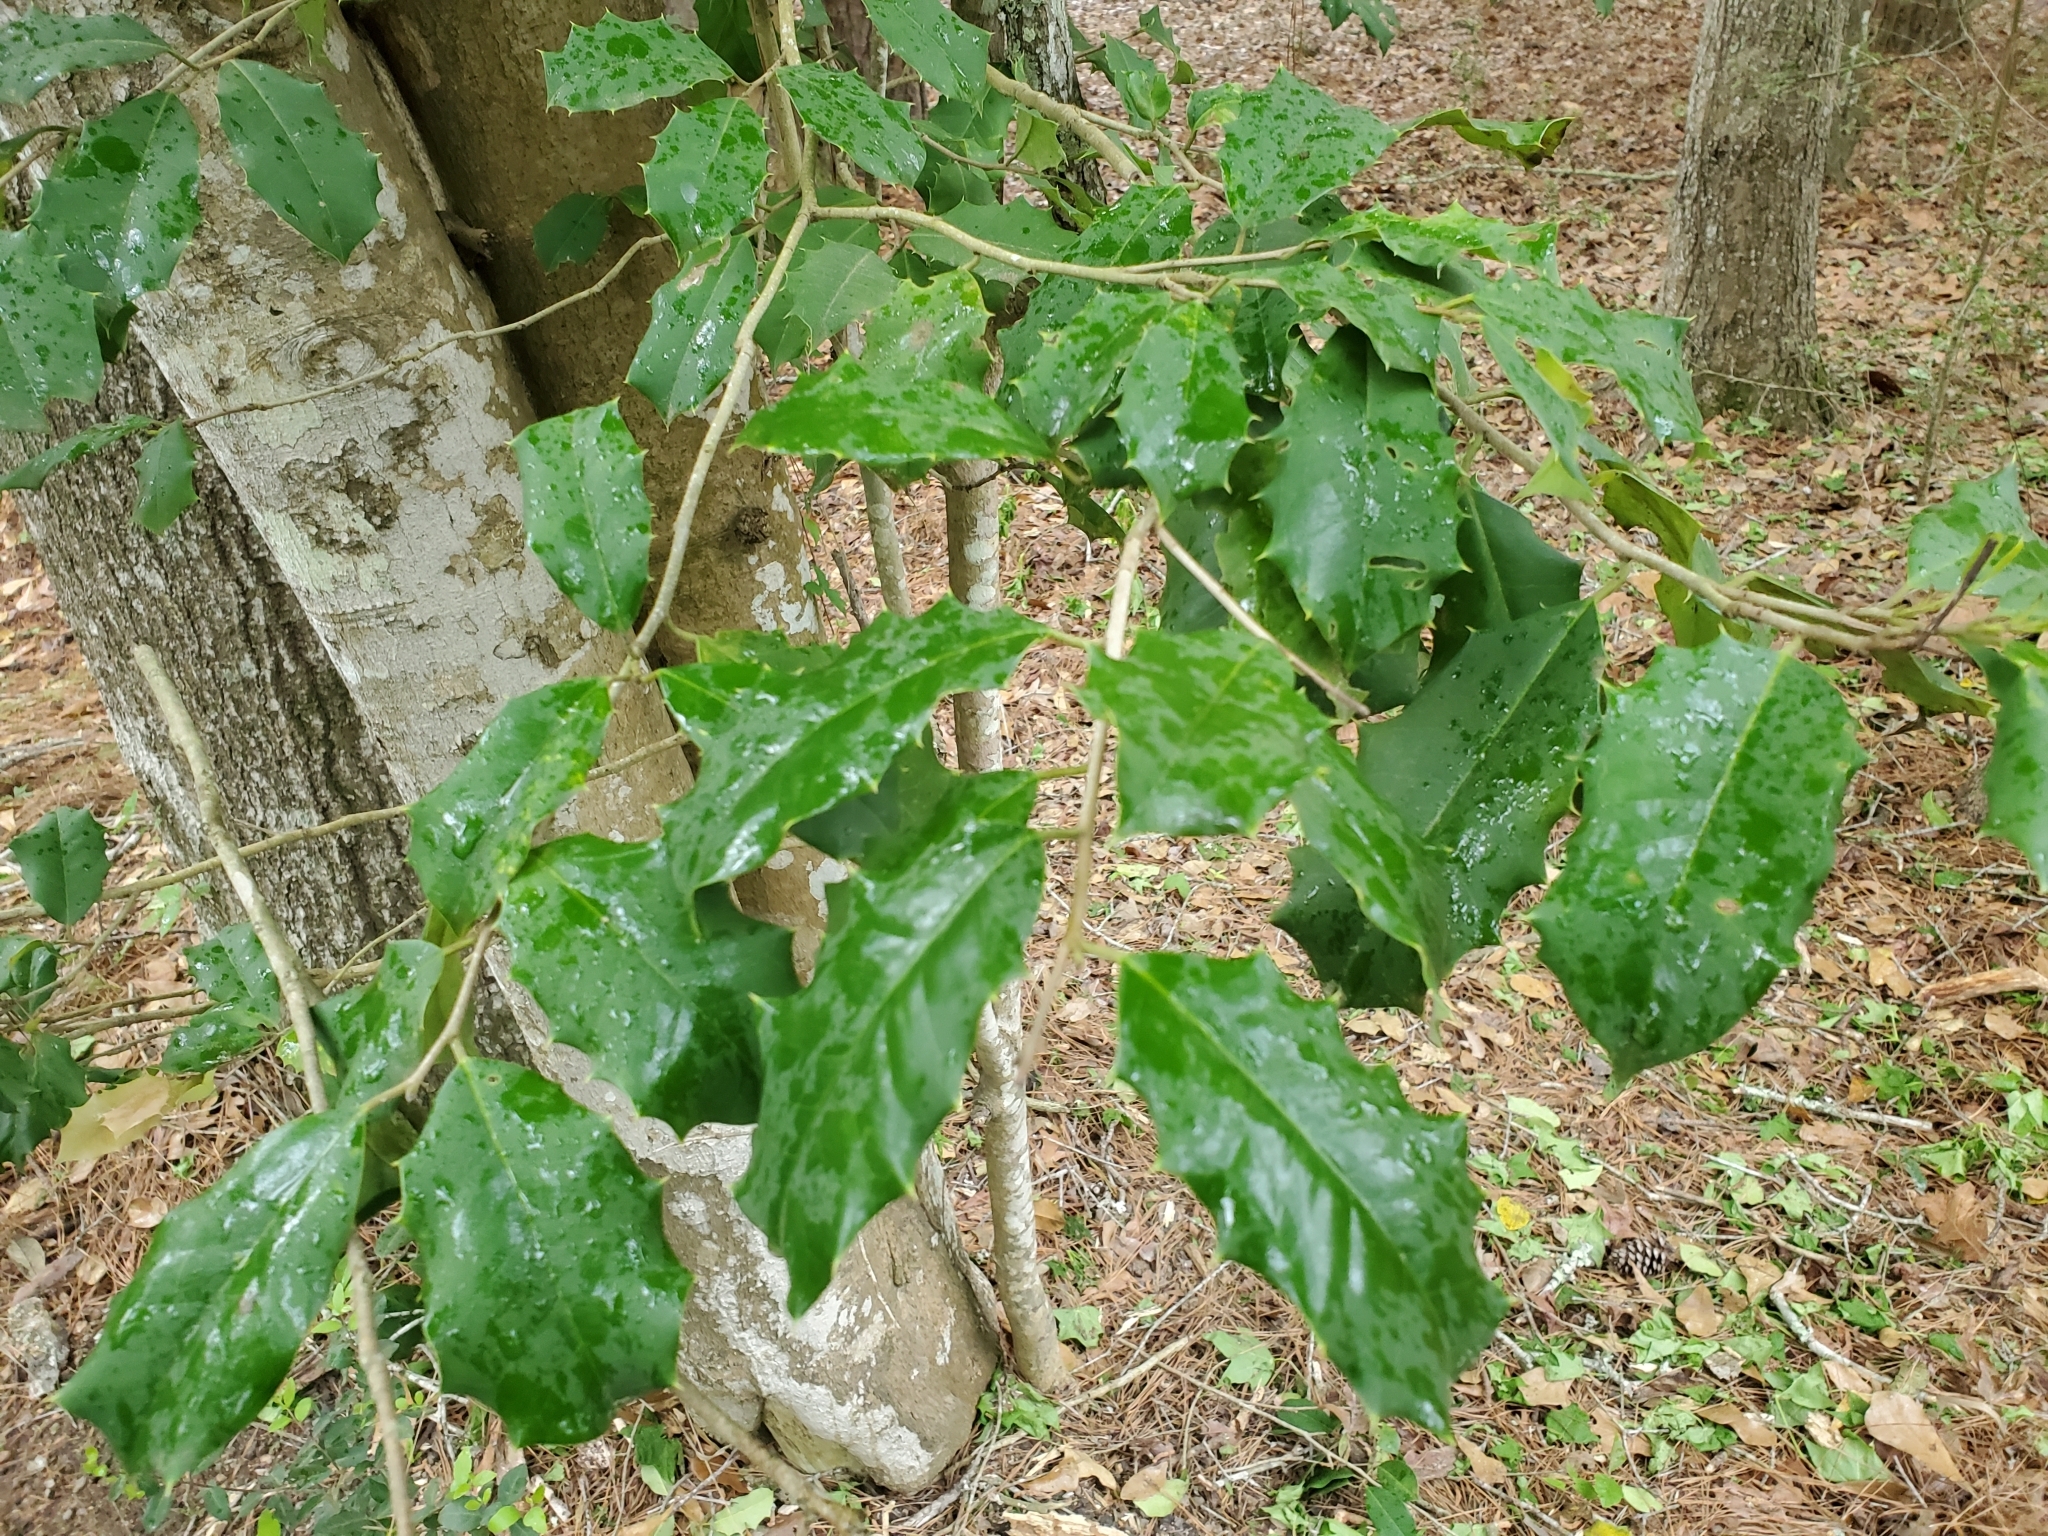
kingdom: Plantae
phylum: Tracheophyta
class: Magnoliopsida
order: Aquifoliales
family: Aquifoliaceae
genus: Ilex
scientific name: Ilex opaca
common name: American holly
